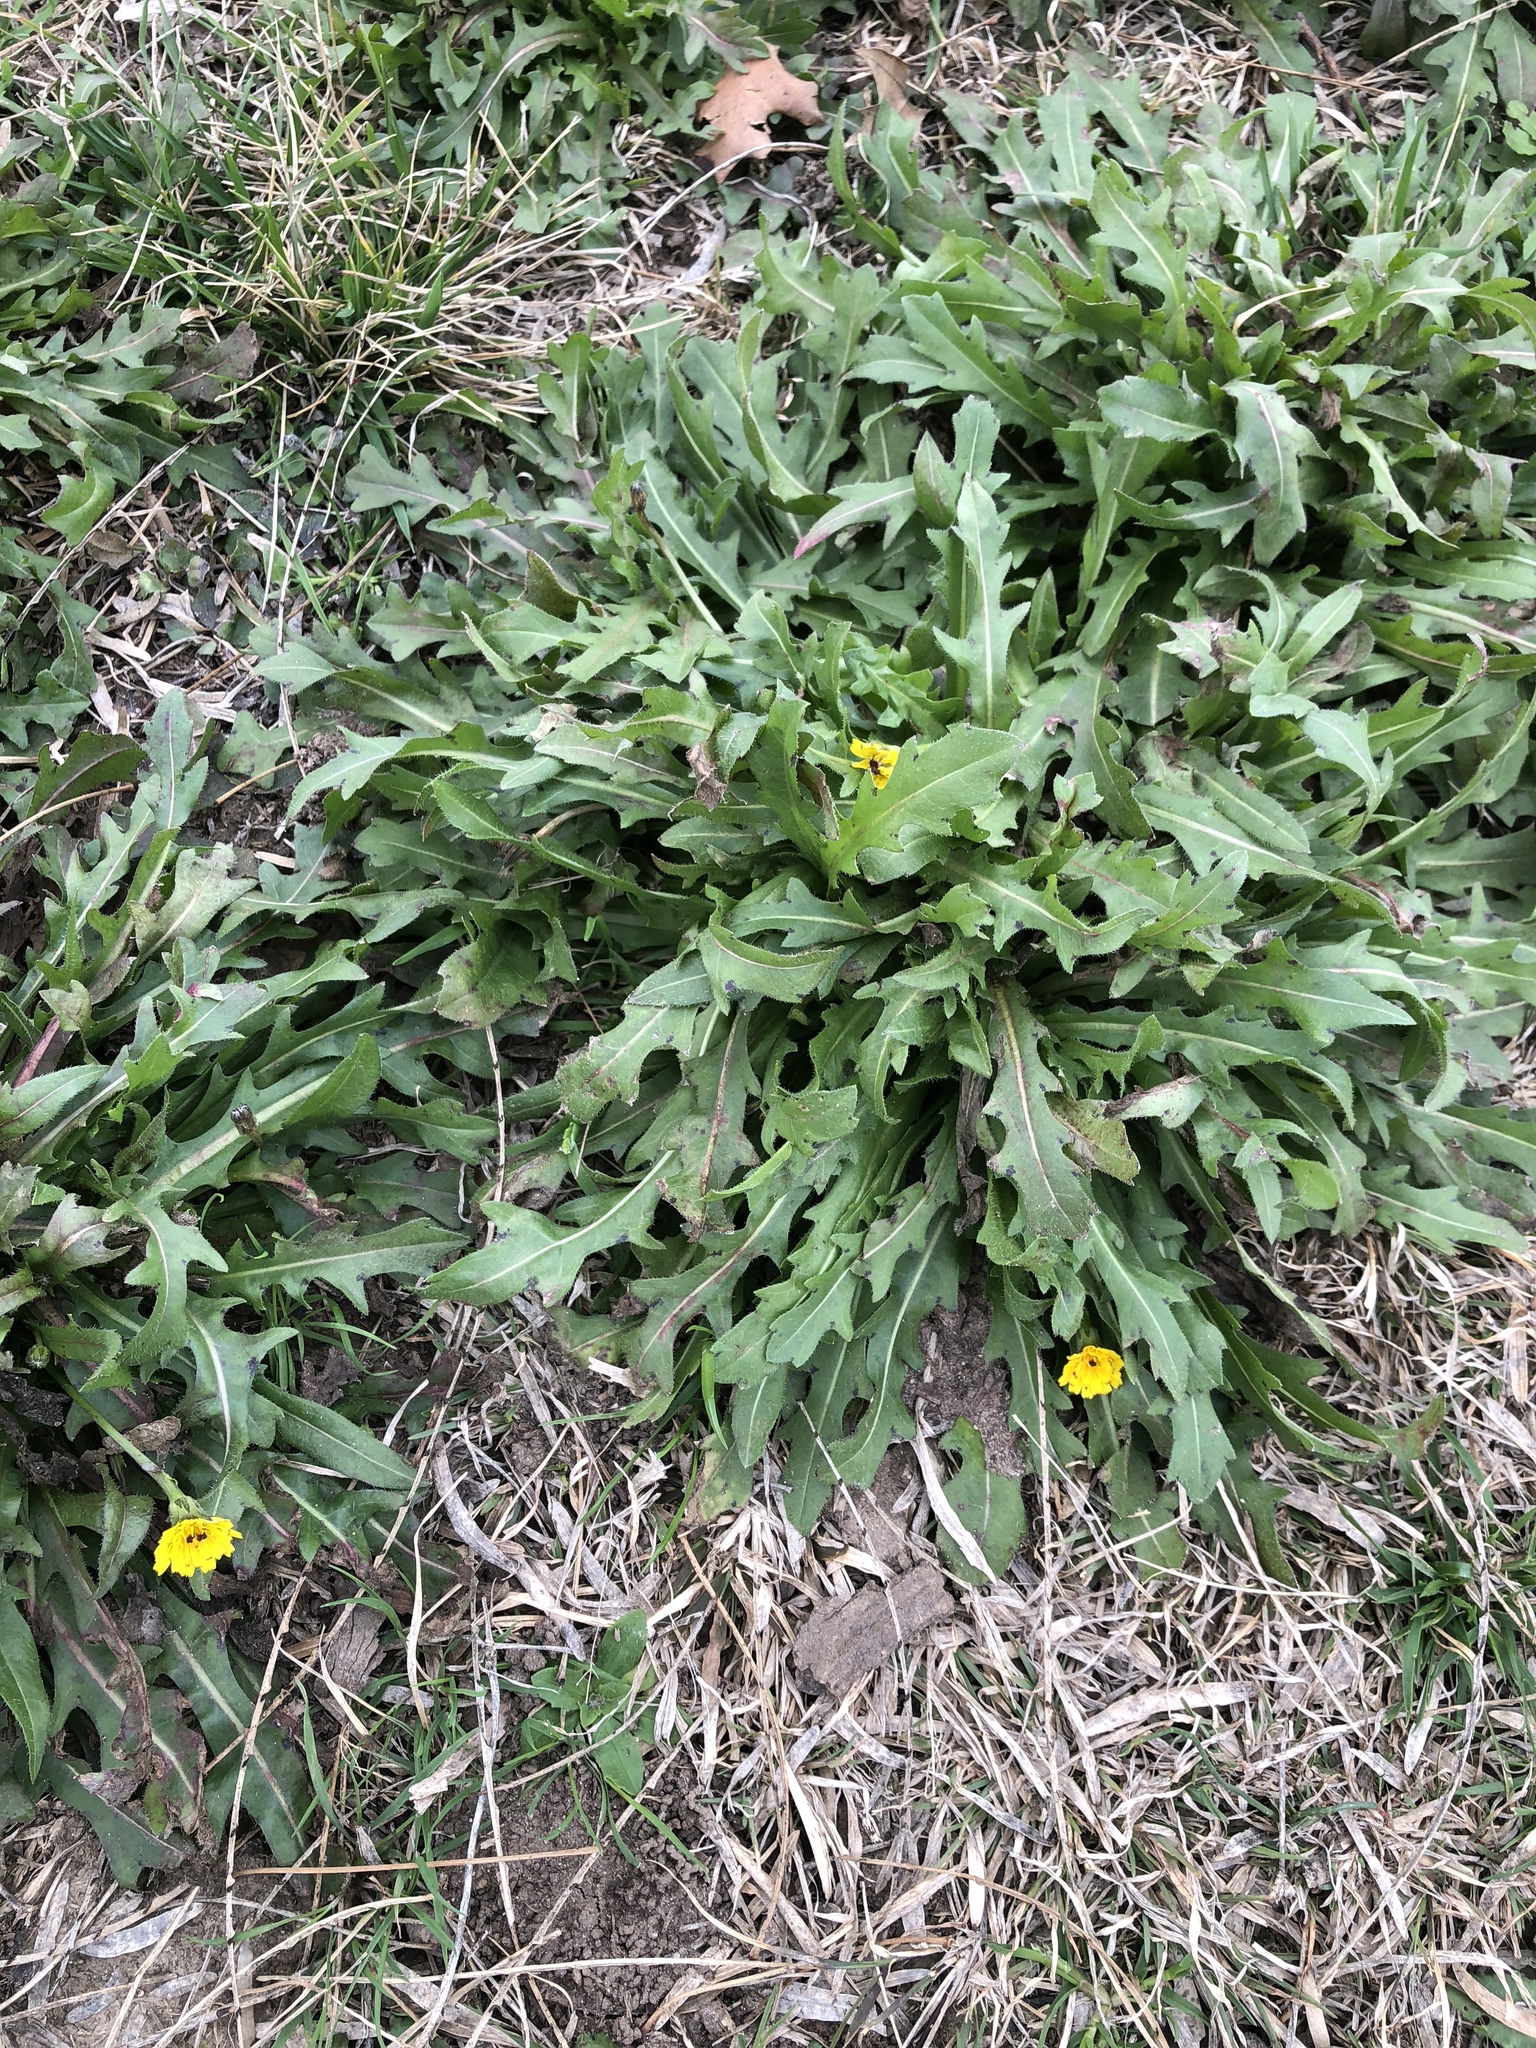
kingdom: Plantae
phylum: Tracheophyta
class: Magnoliopsida
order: Asterales
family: Asteraceae
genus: Hedypnois
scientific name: Hedypnois rhagadioloides
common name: Cretan weed
